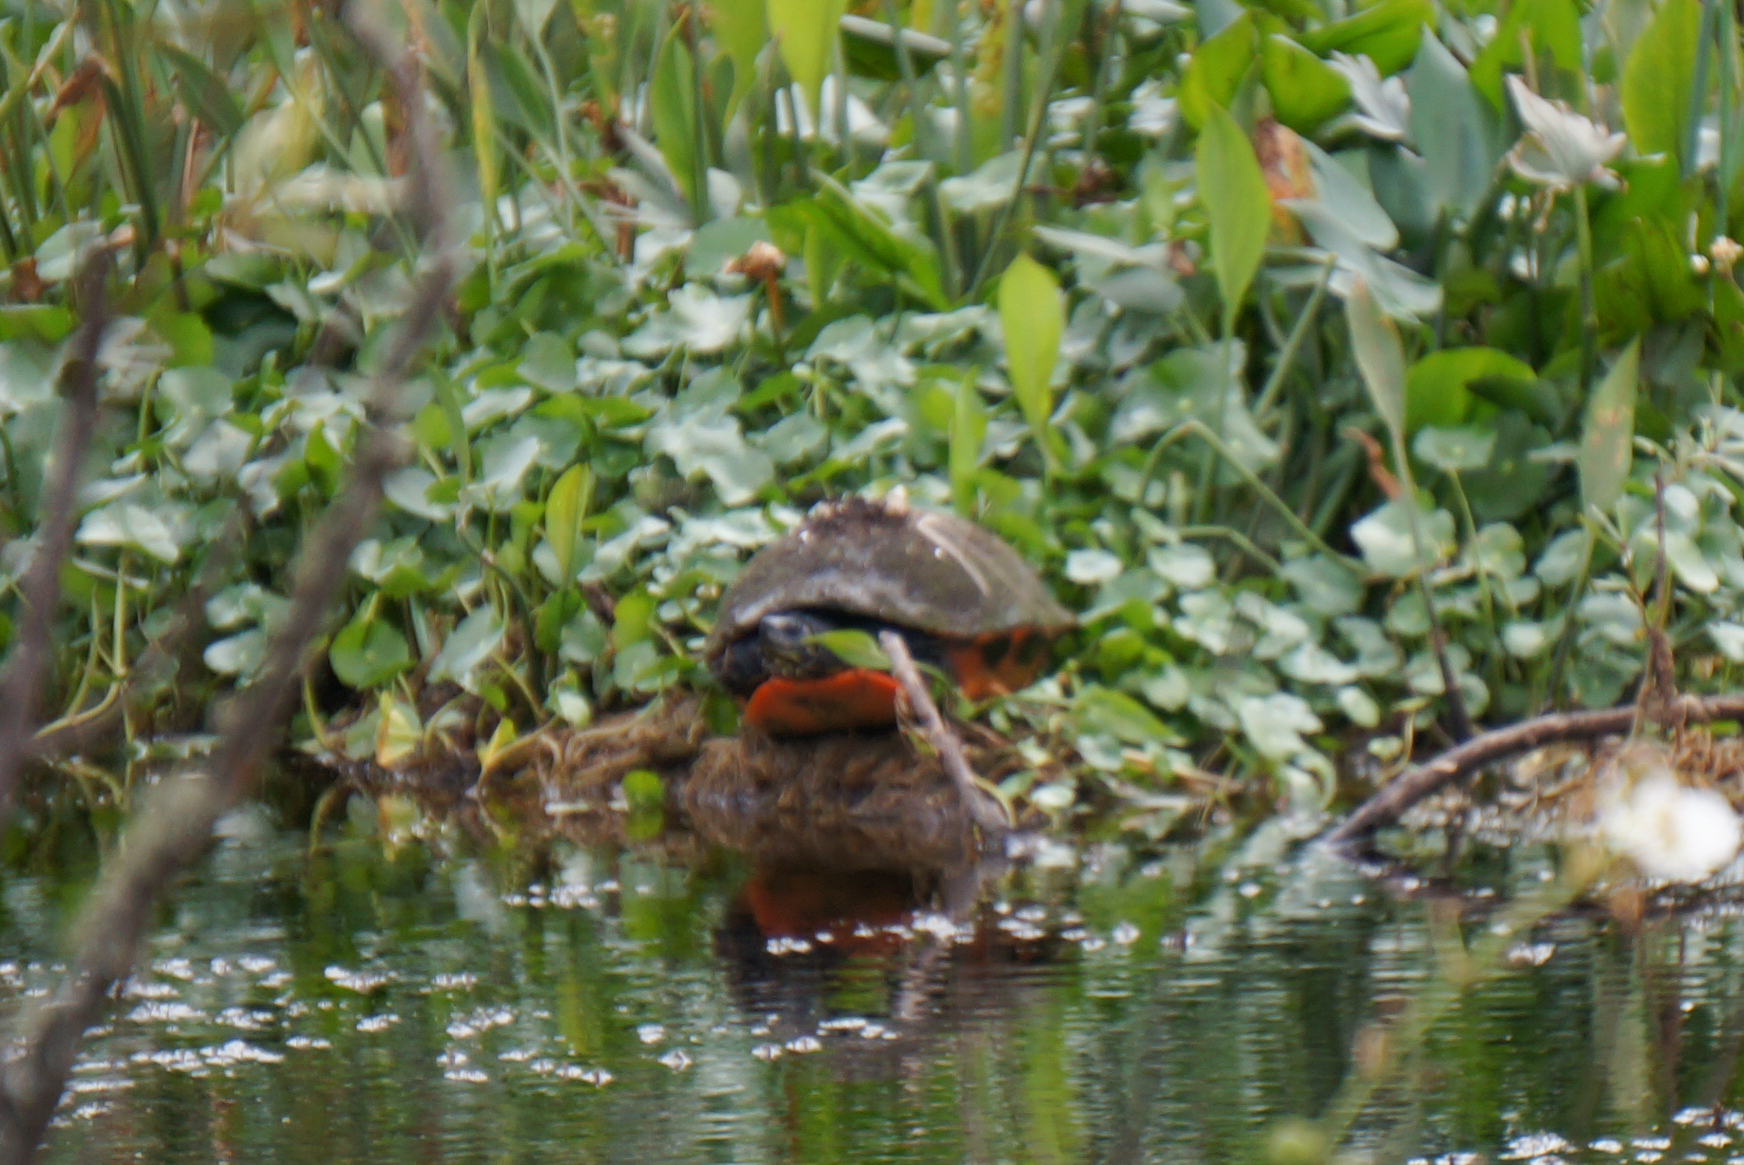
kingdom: Animalia
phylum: Chordata
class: Testudines
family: Emydidae
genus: Pseudemys
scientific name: Pseudemys nelsoni
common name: Florida red-bellied turtle
